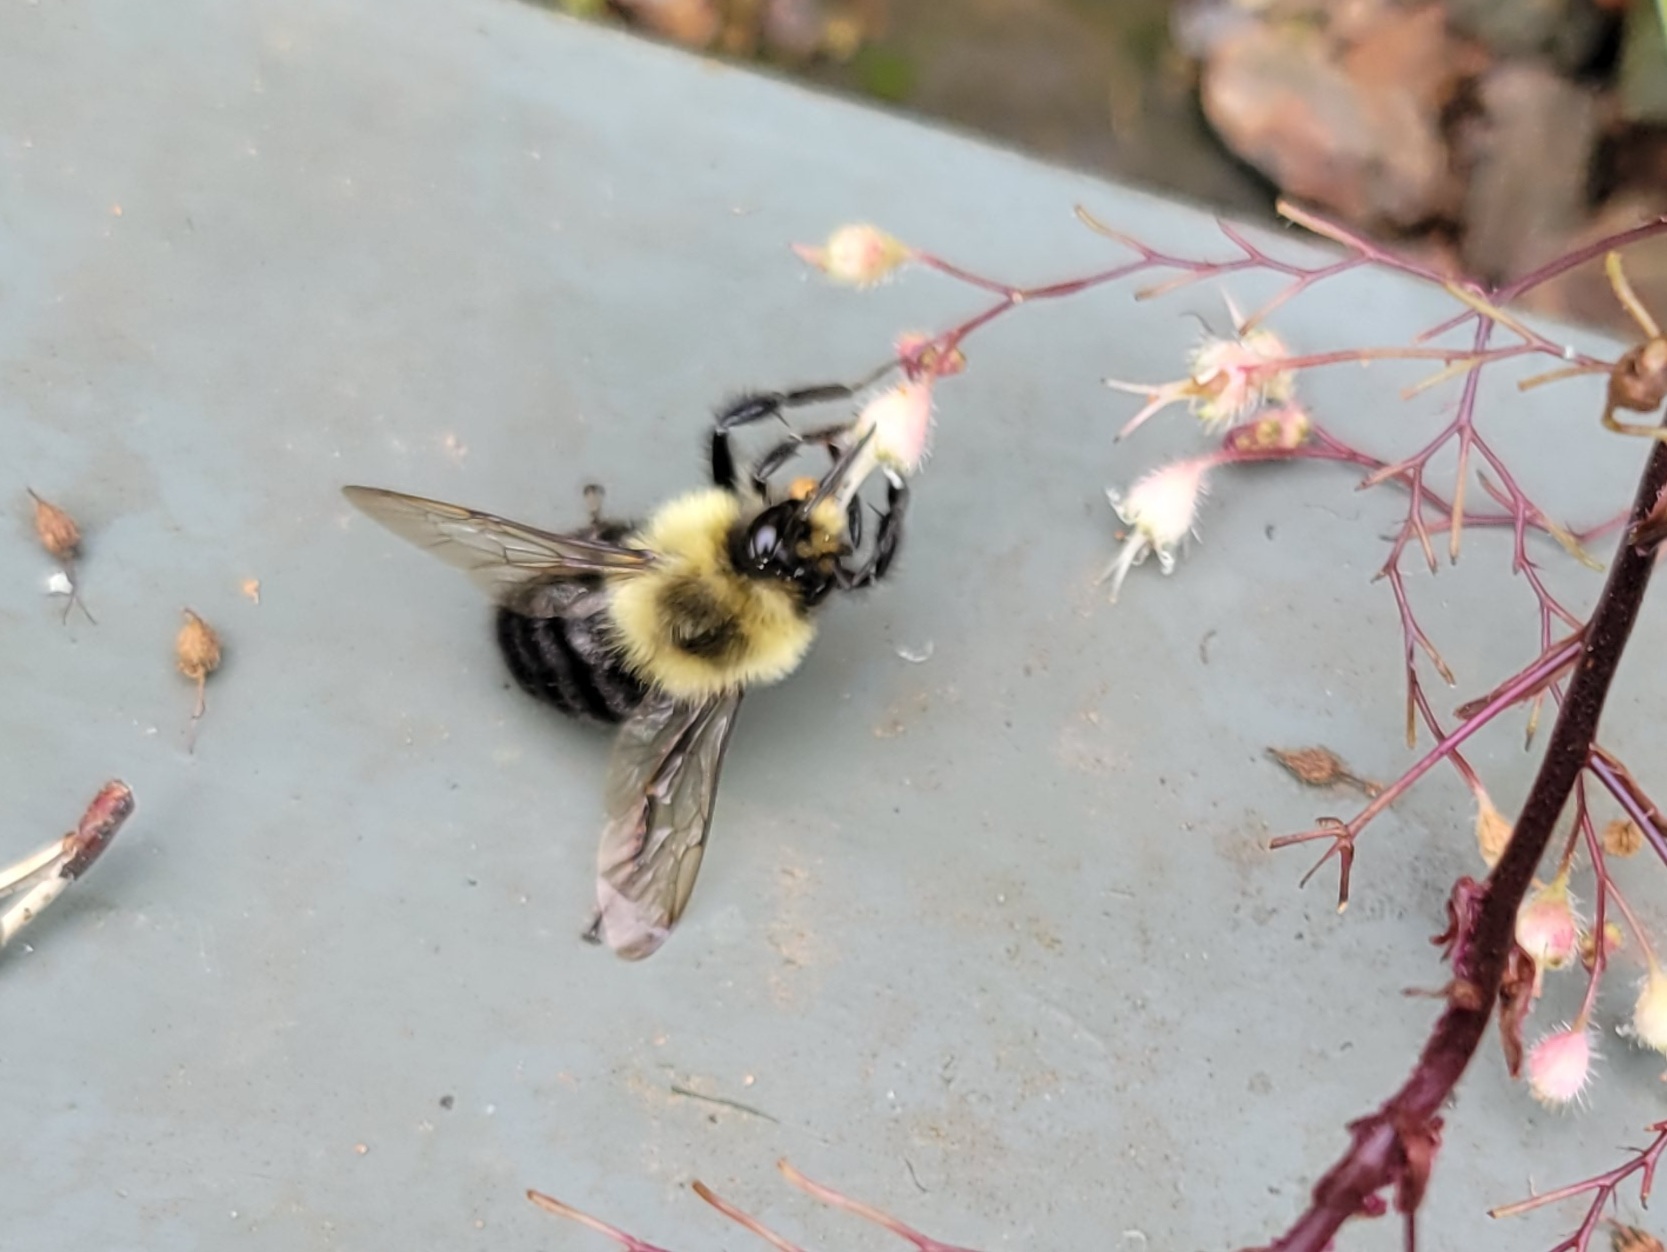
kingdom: Animalia
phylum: Arthropoda
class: Insecta
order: Hymenoptera
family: Apidae
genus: Bombus
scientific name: Bombus impatiens
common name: Common eastern bumble bee
